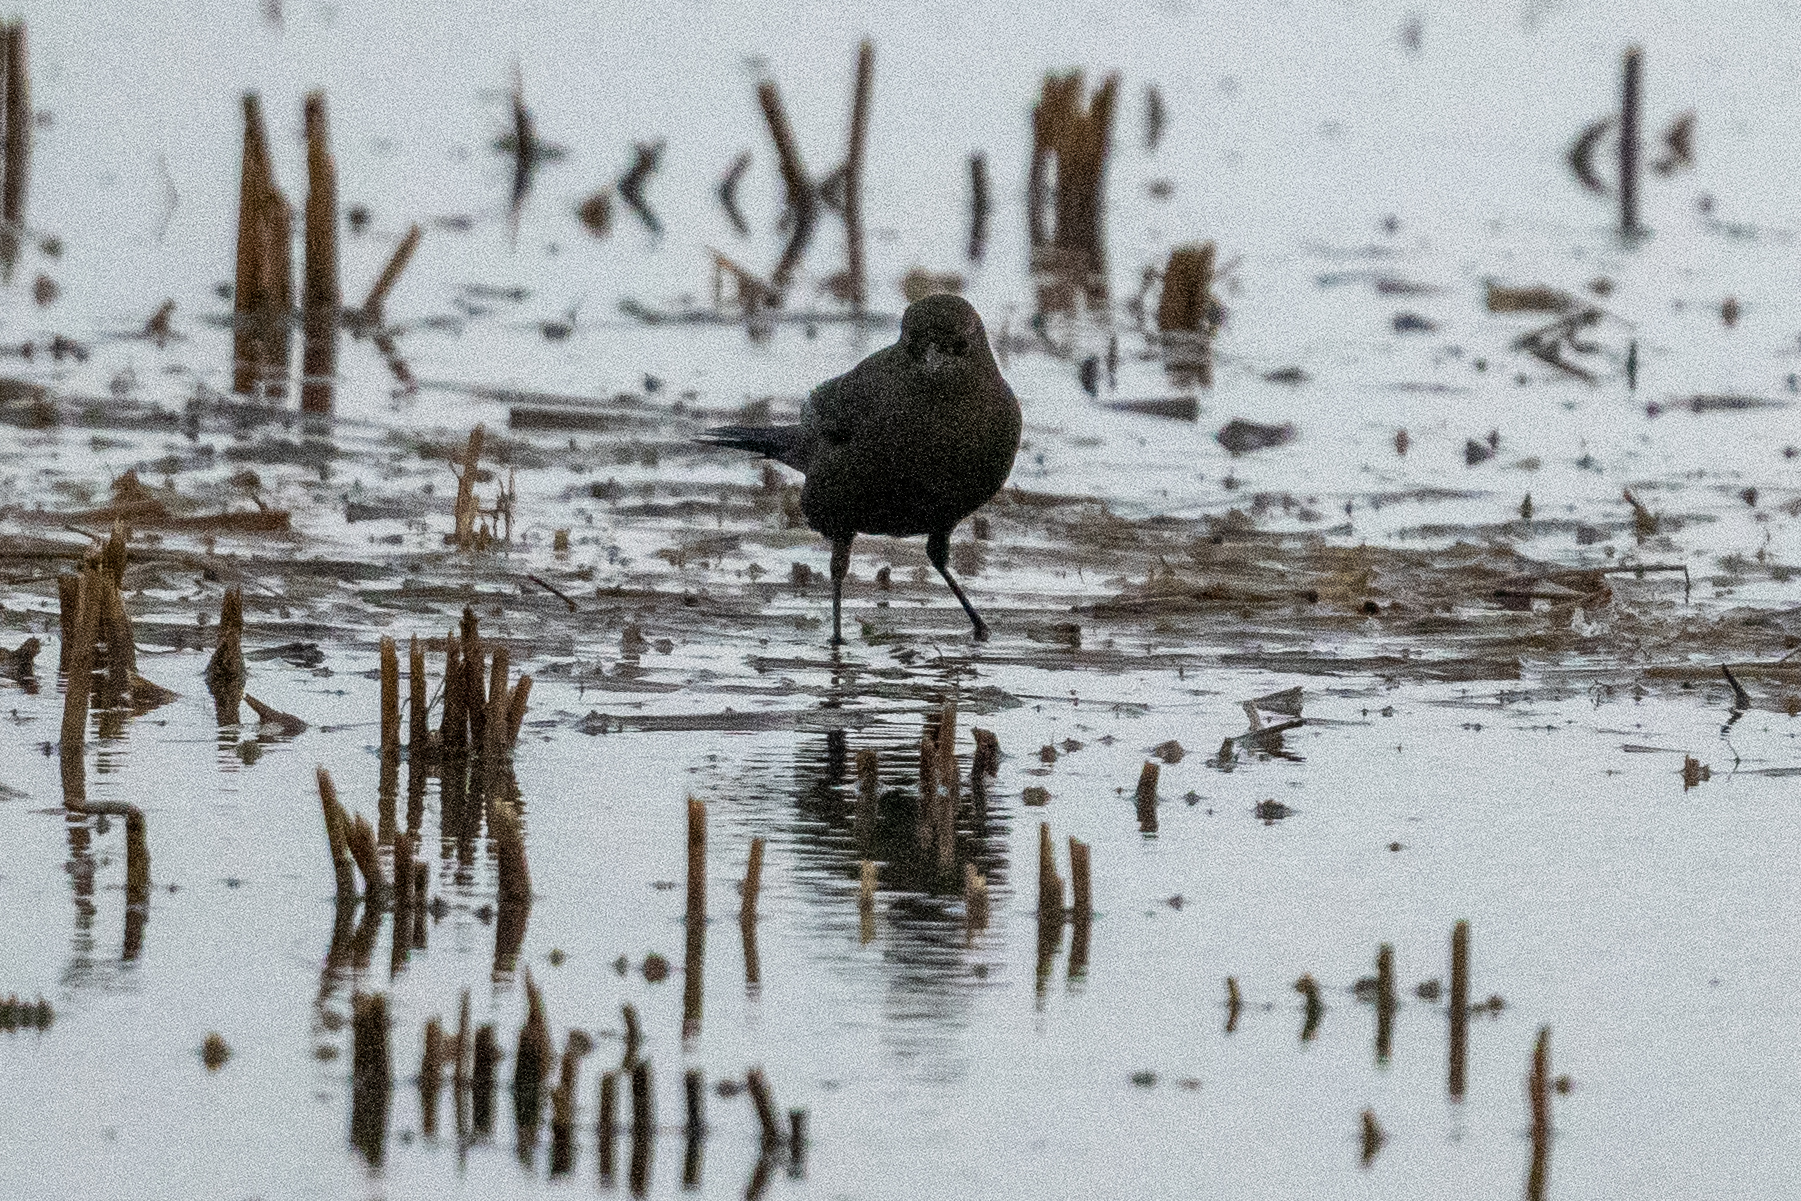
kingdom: Animalia
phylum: Chordata
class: Aves
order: Passeriformes
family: Icteridae
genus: Euphagus
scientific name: Euphagus cyanocephalus
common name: Brewer's blackbird
